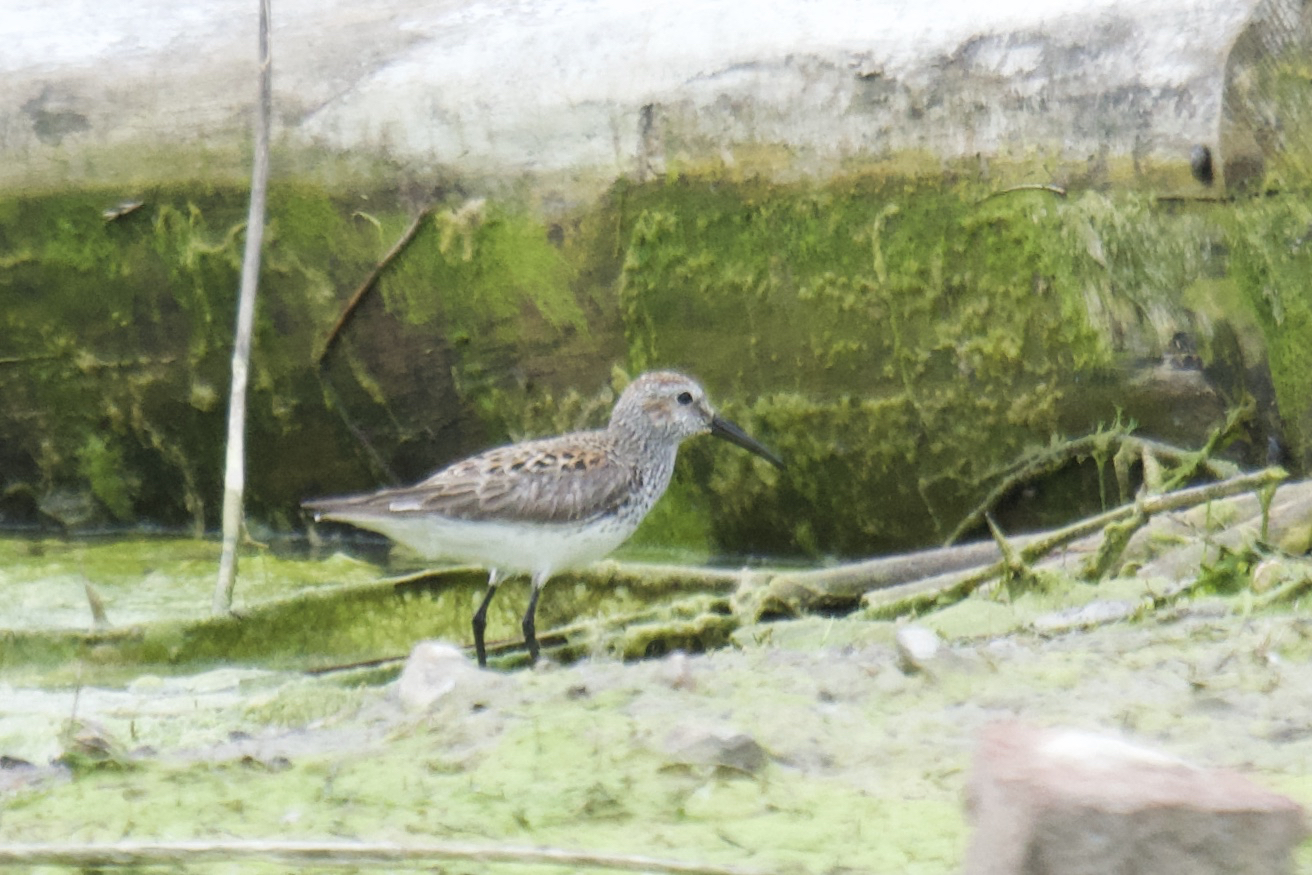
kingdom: Animalia
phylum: Chordata
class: Aves
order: Charadriiformes
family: Scolopacidae
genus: Calidris
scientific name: Calidris
